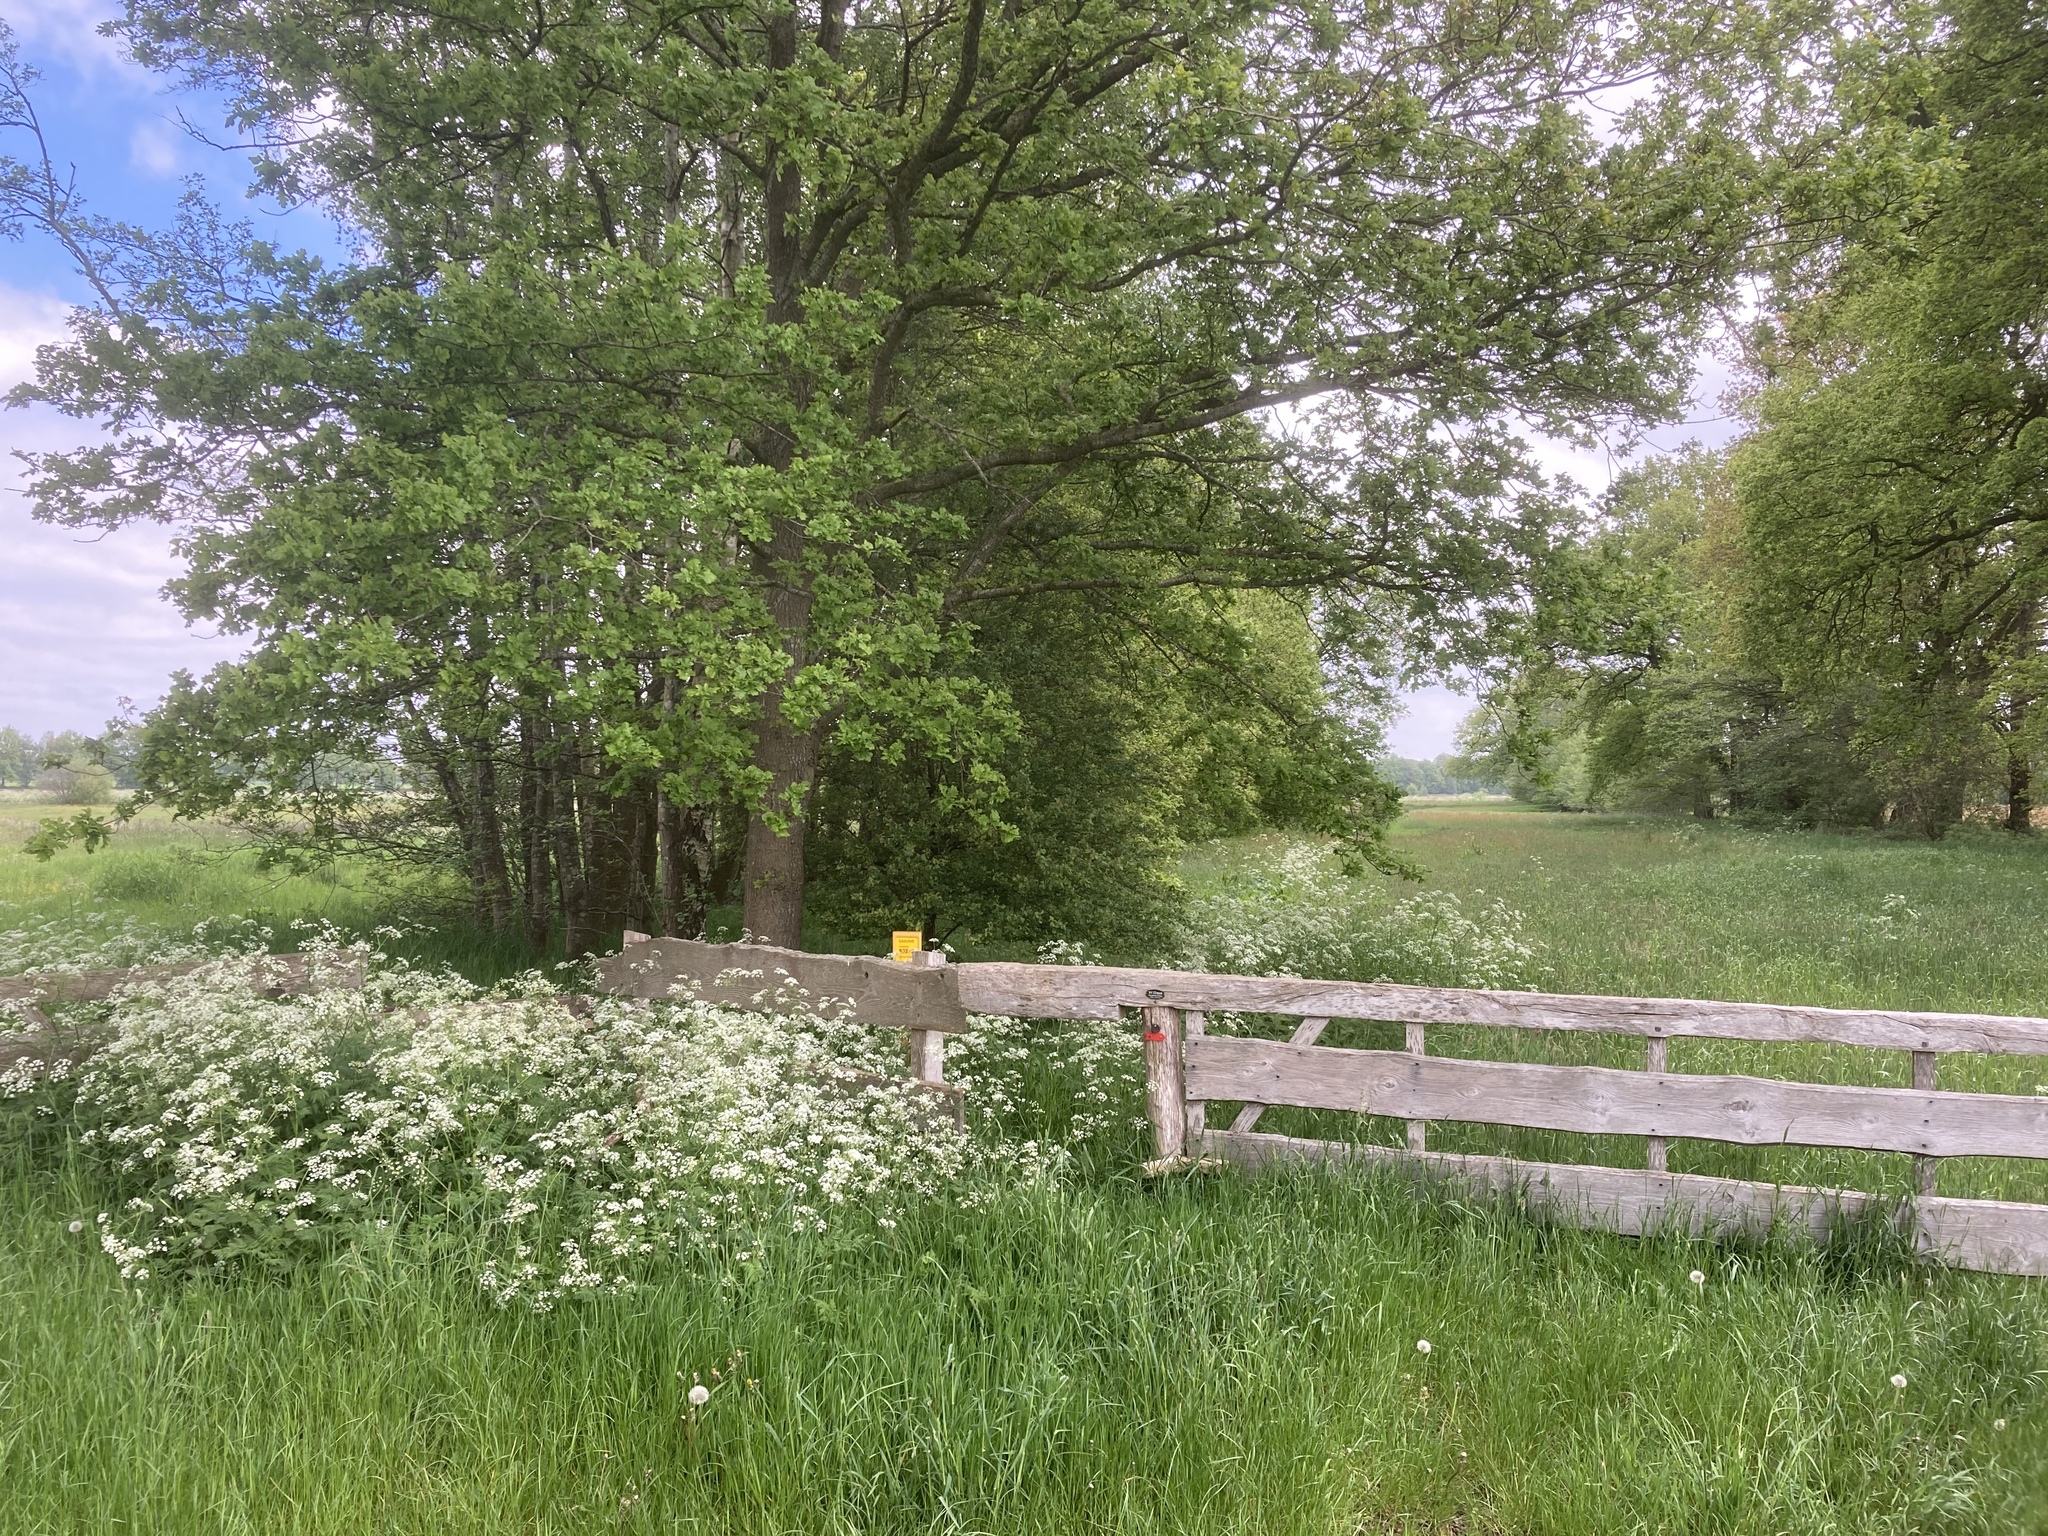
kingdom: Plantae
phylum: Tracheophyta
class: Magnoliopsida
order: Apiales
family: Apiaceae
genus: Anthriscus
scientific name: Anthriscus sylvestris
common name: Cow parsley
